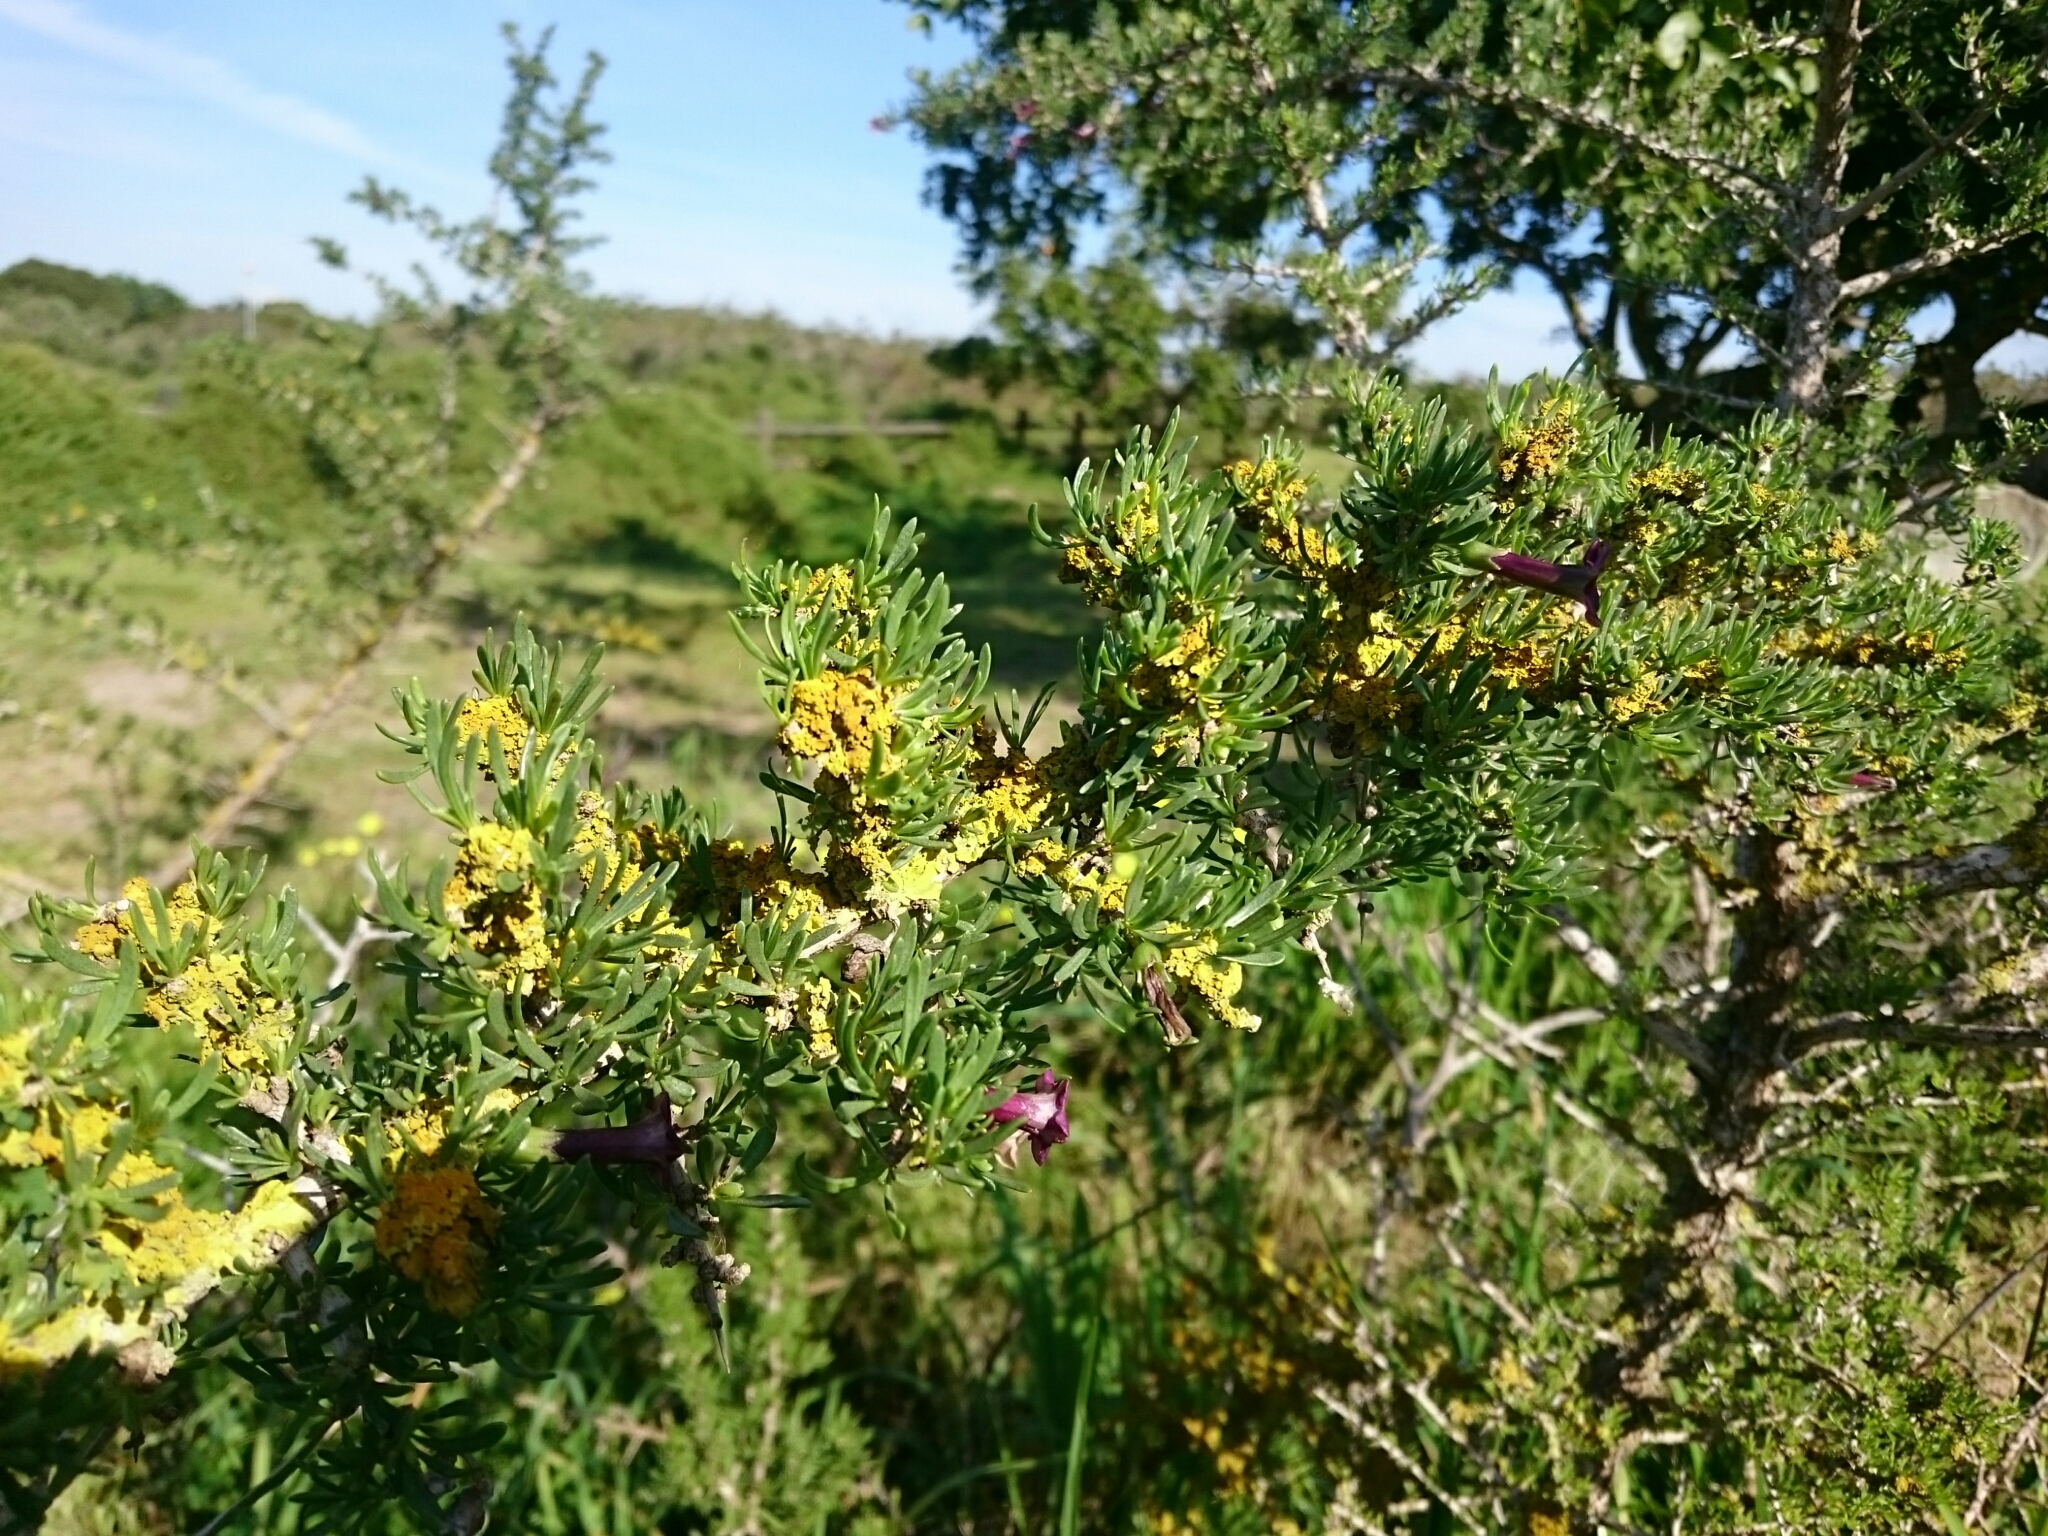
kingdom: Fungi
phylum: Ascomycota
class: Lecanoromycetes
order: Teloschistales
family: Teloschistaceae
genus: Xanthoria
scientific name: Xanthoria parietina
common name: Common orange lichen
